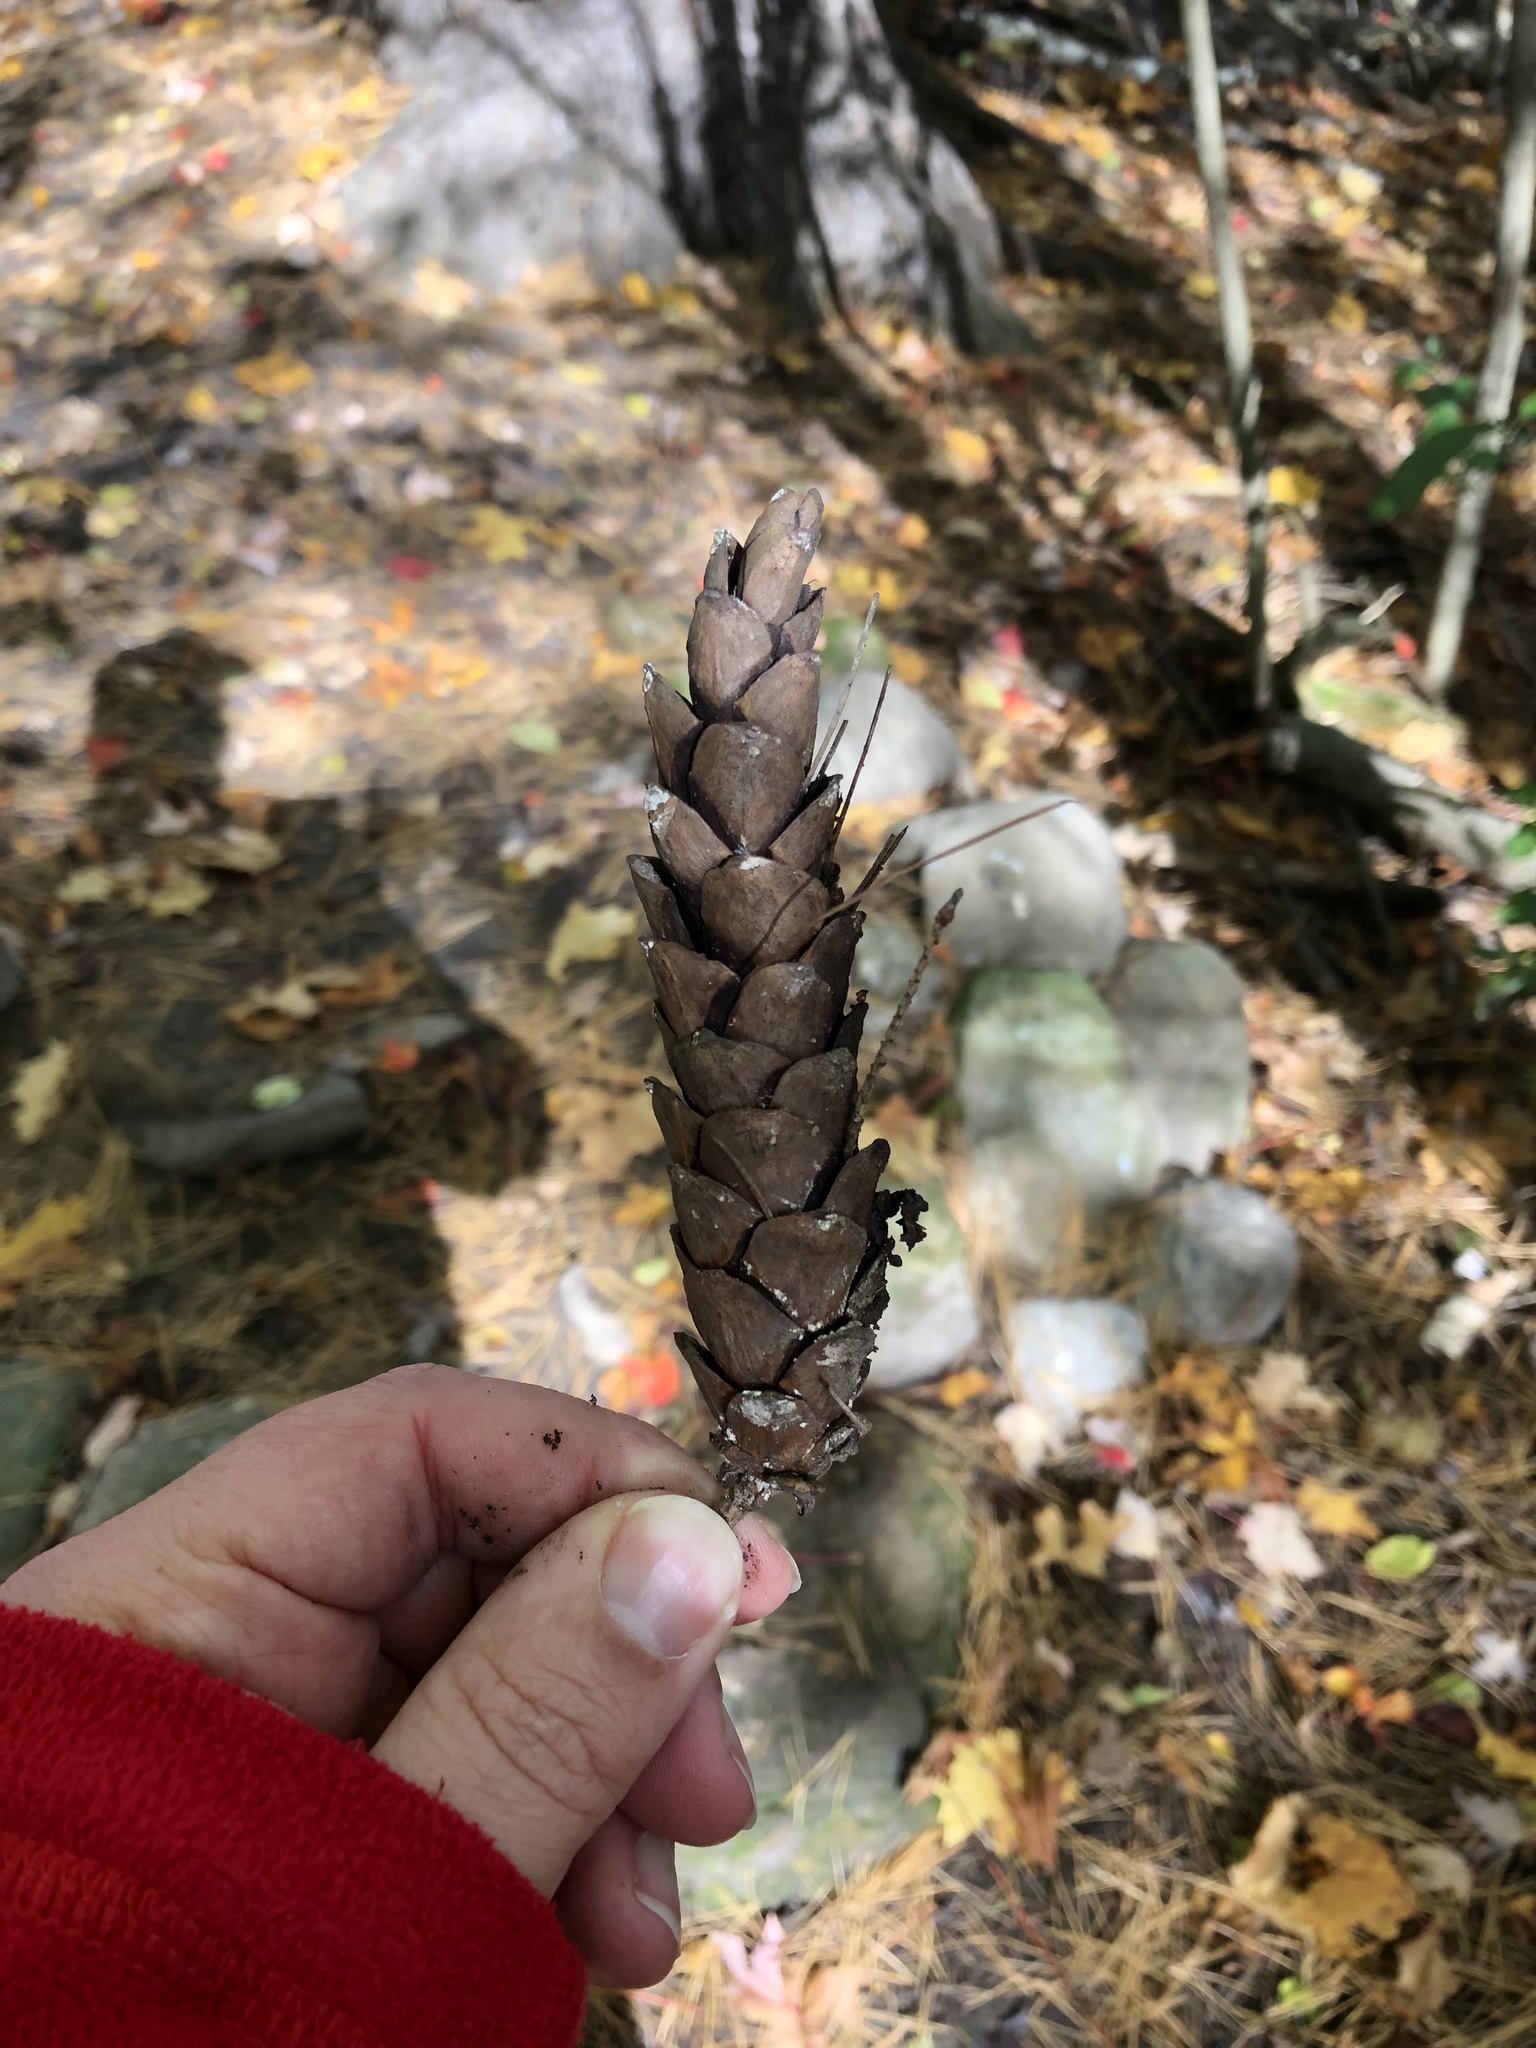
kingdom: Plantae
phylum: Tracheophyta
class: Pinopsida
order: Pinales
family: Pinaceae
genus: Pinus
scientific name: Pinus strobus
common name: Weymouth pine
